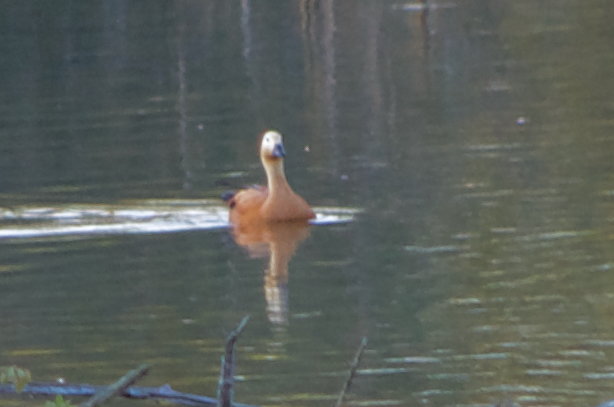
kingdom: Animalia
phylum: Chordata
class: Aves
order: Anseriformes
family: Anatidae
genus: Tadorna
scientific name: Tadorna ferruginea
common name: Ruddy shelduck
